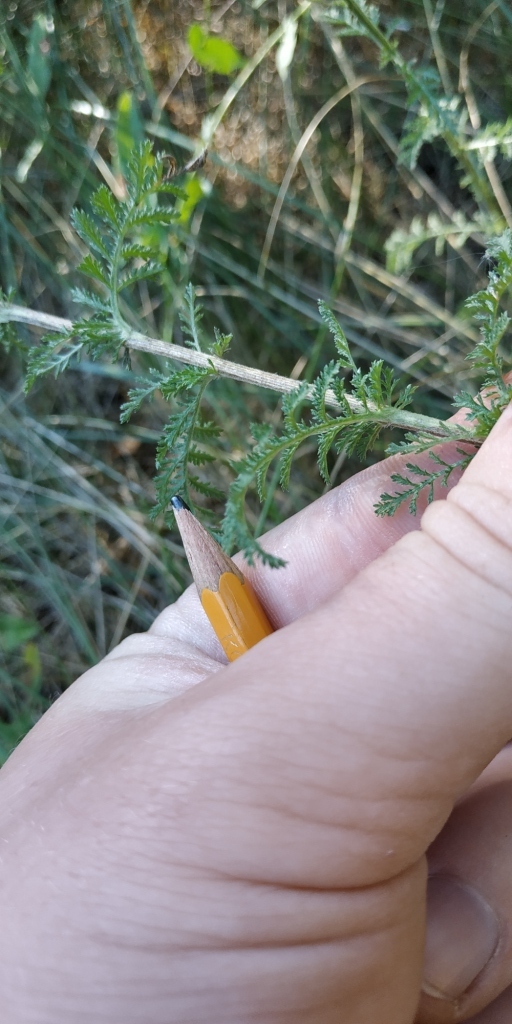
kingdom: Plantae
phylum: Tracheophyta
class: Magnoliopsida
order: Asterales
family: Asteraceae
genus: Achillea
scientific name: Achillea nobilis
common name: Noble yarrow
